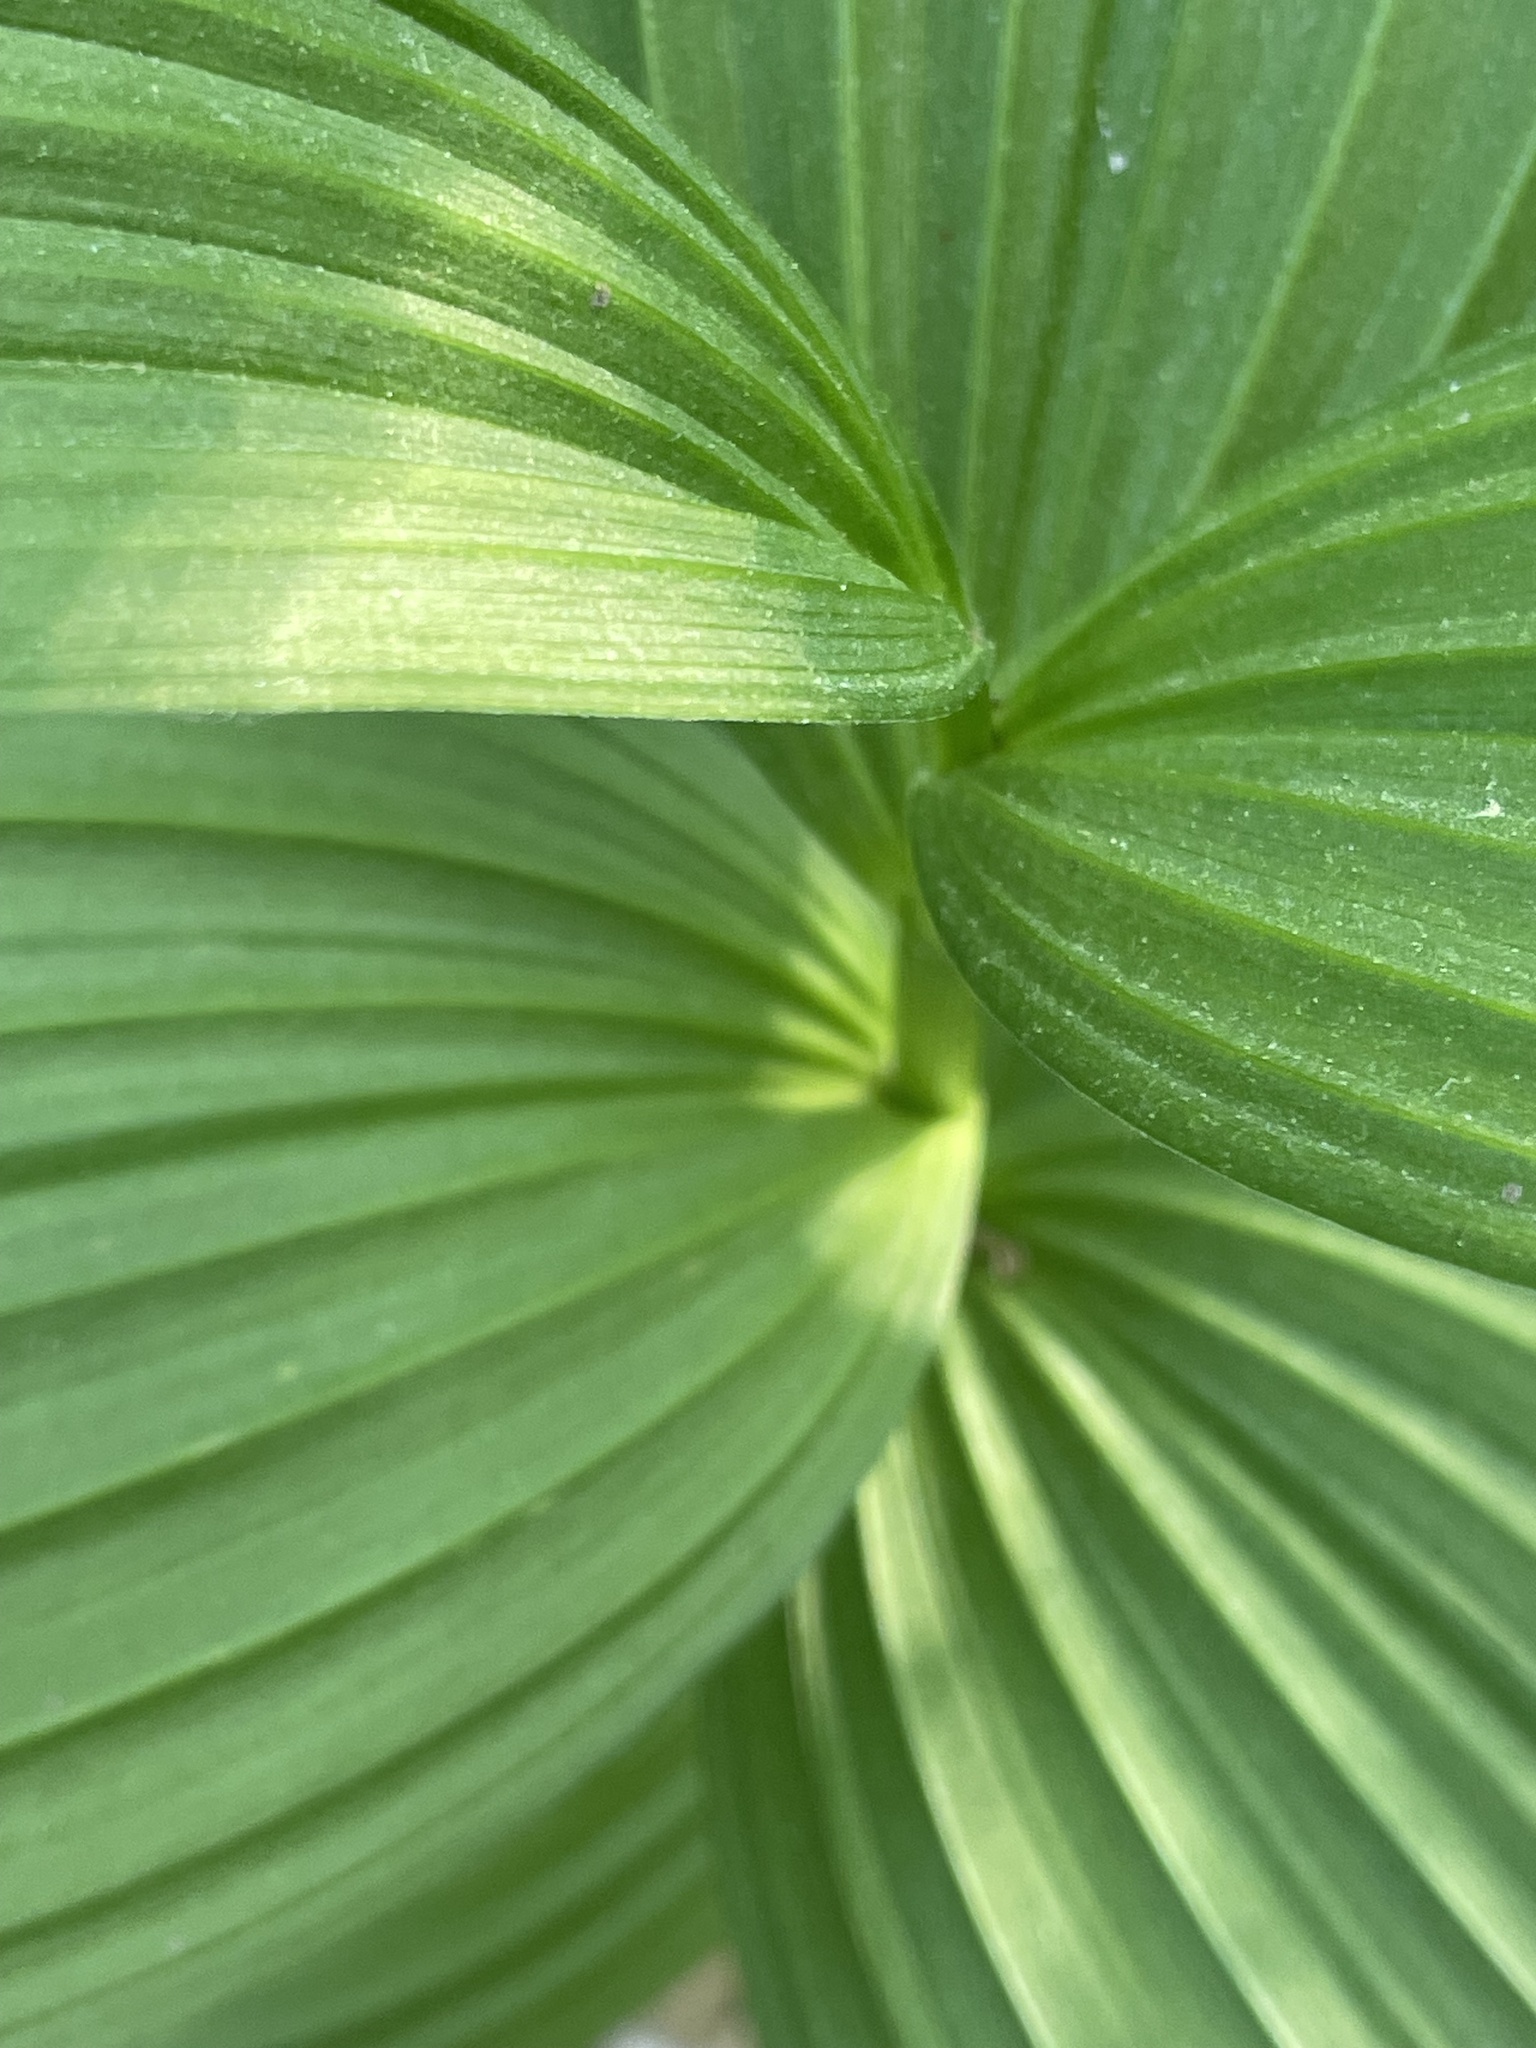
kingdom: Plantae
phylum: Tracheophyta
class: Liliopsida
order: Liliales
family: Melanthiaceae
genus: Veratrum
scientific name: Veratrum viride
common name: American false hellebore
